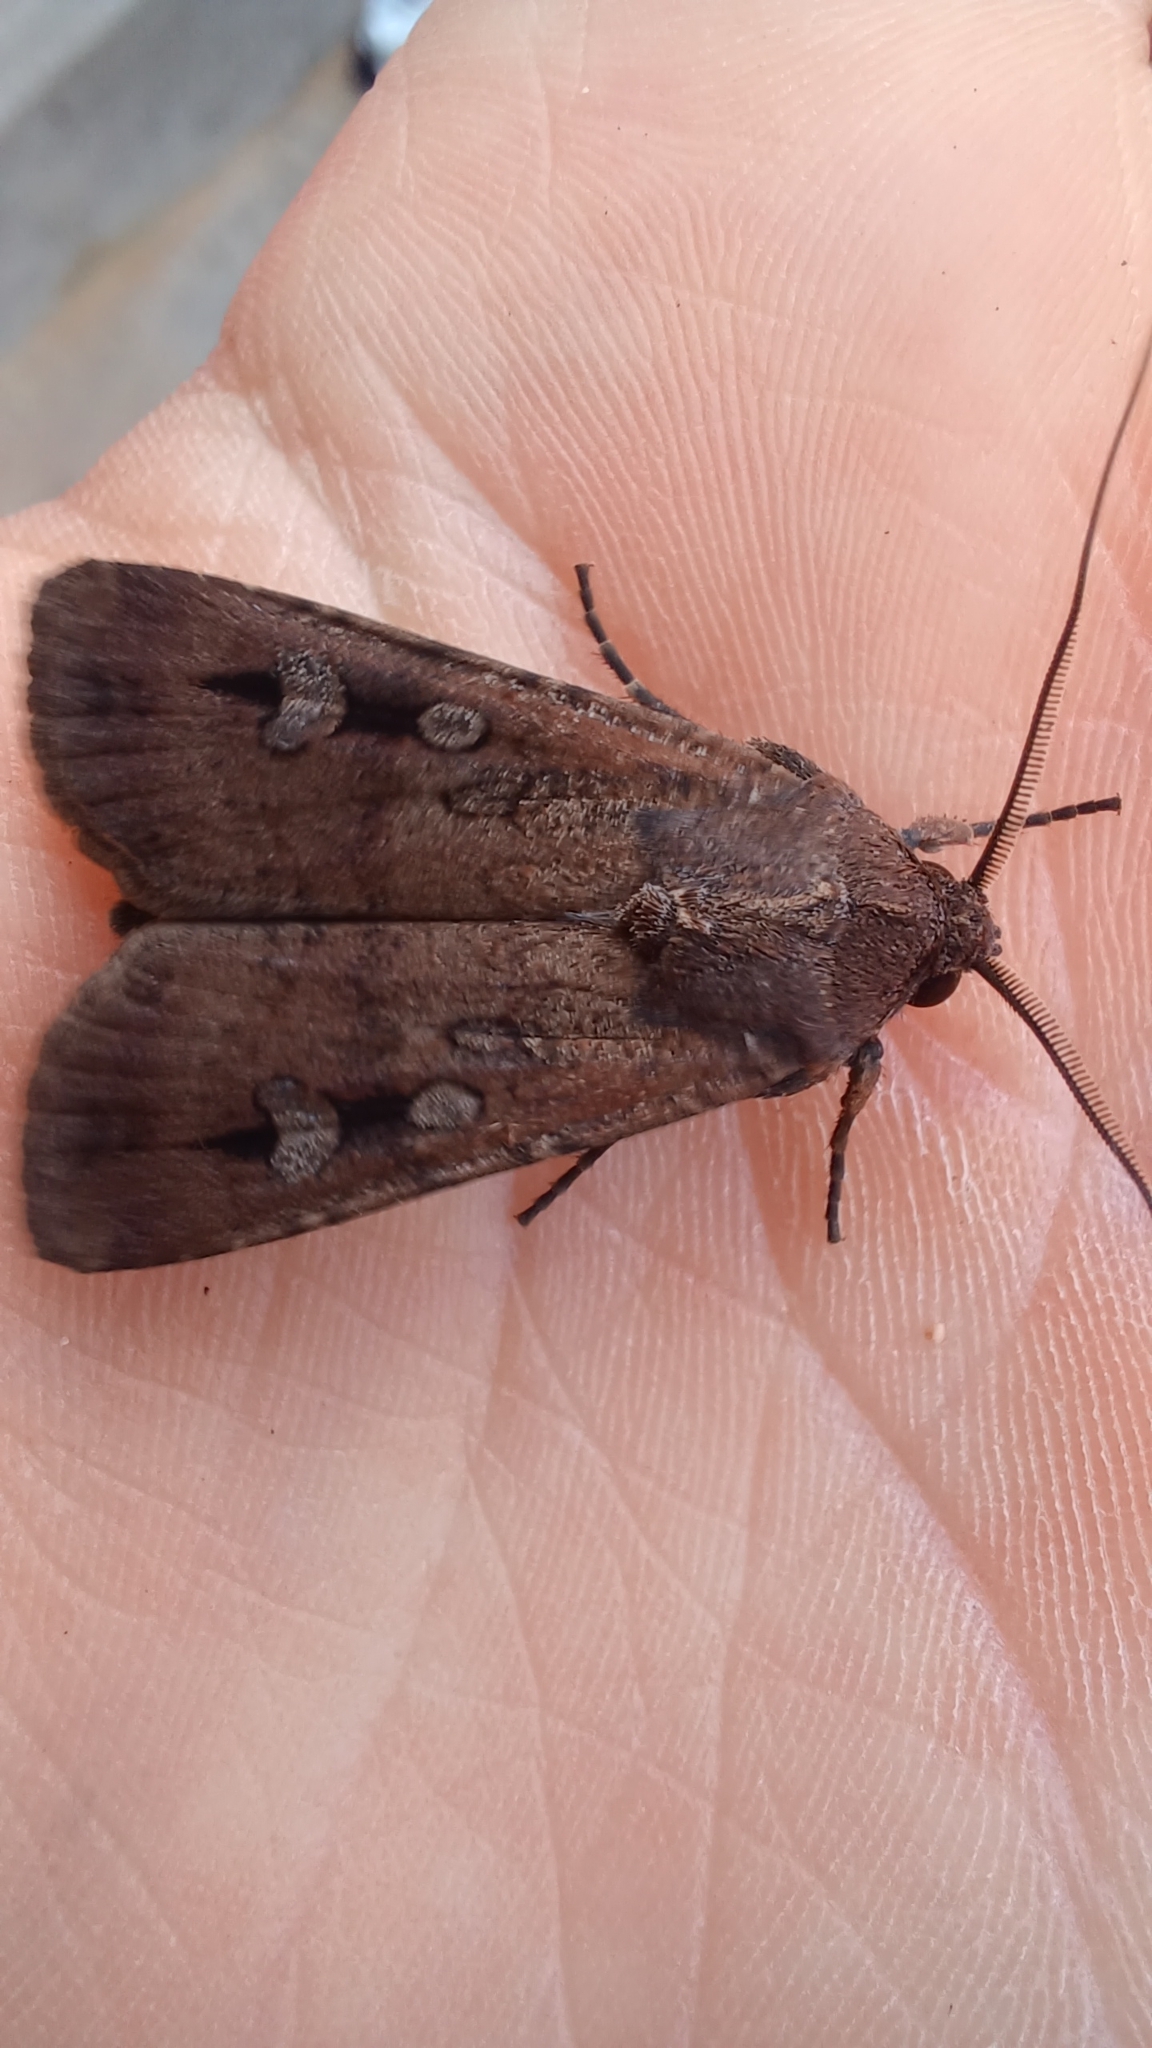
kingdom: Animalia
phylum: Arthropoda
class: Insecta
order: Lepidoptera
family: Noctuidae
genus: Agrotis
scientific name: Agrotis infusa
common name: Bogong moth
